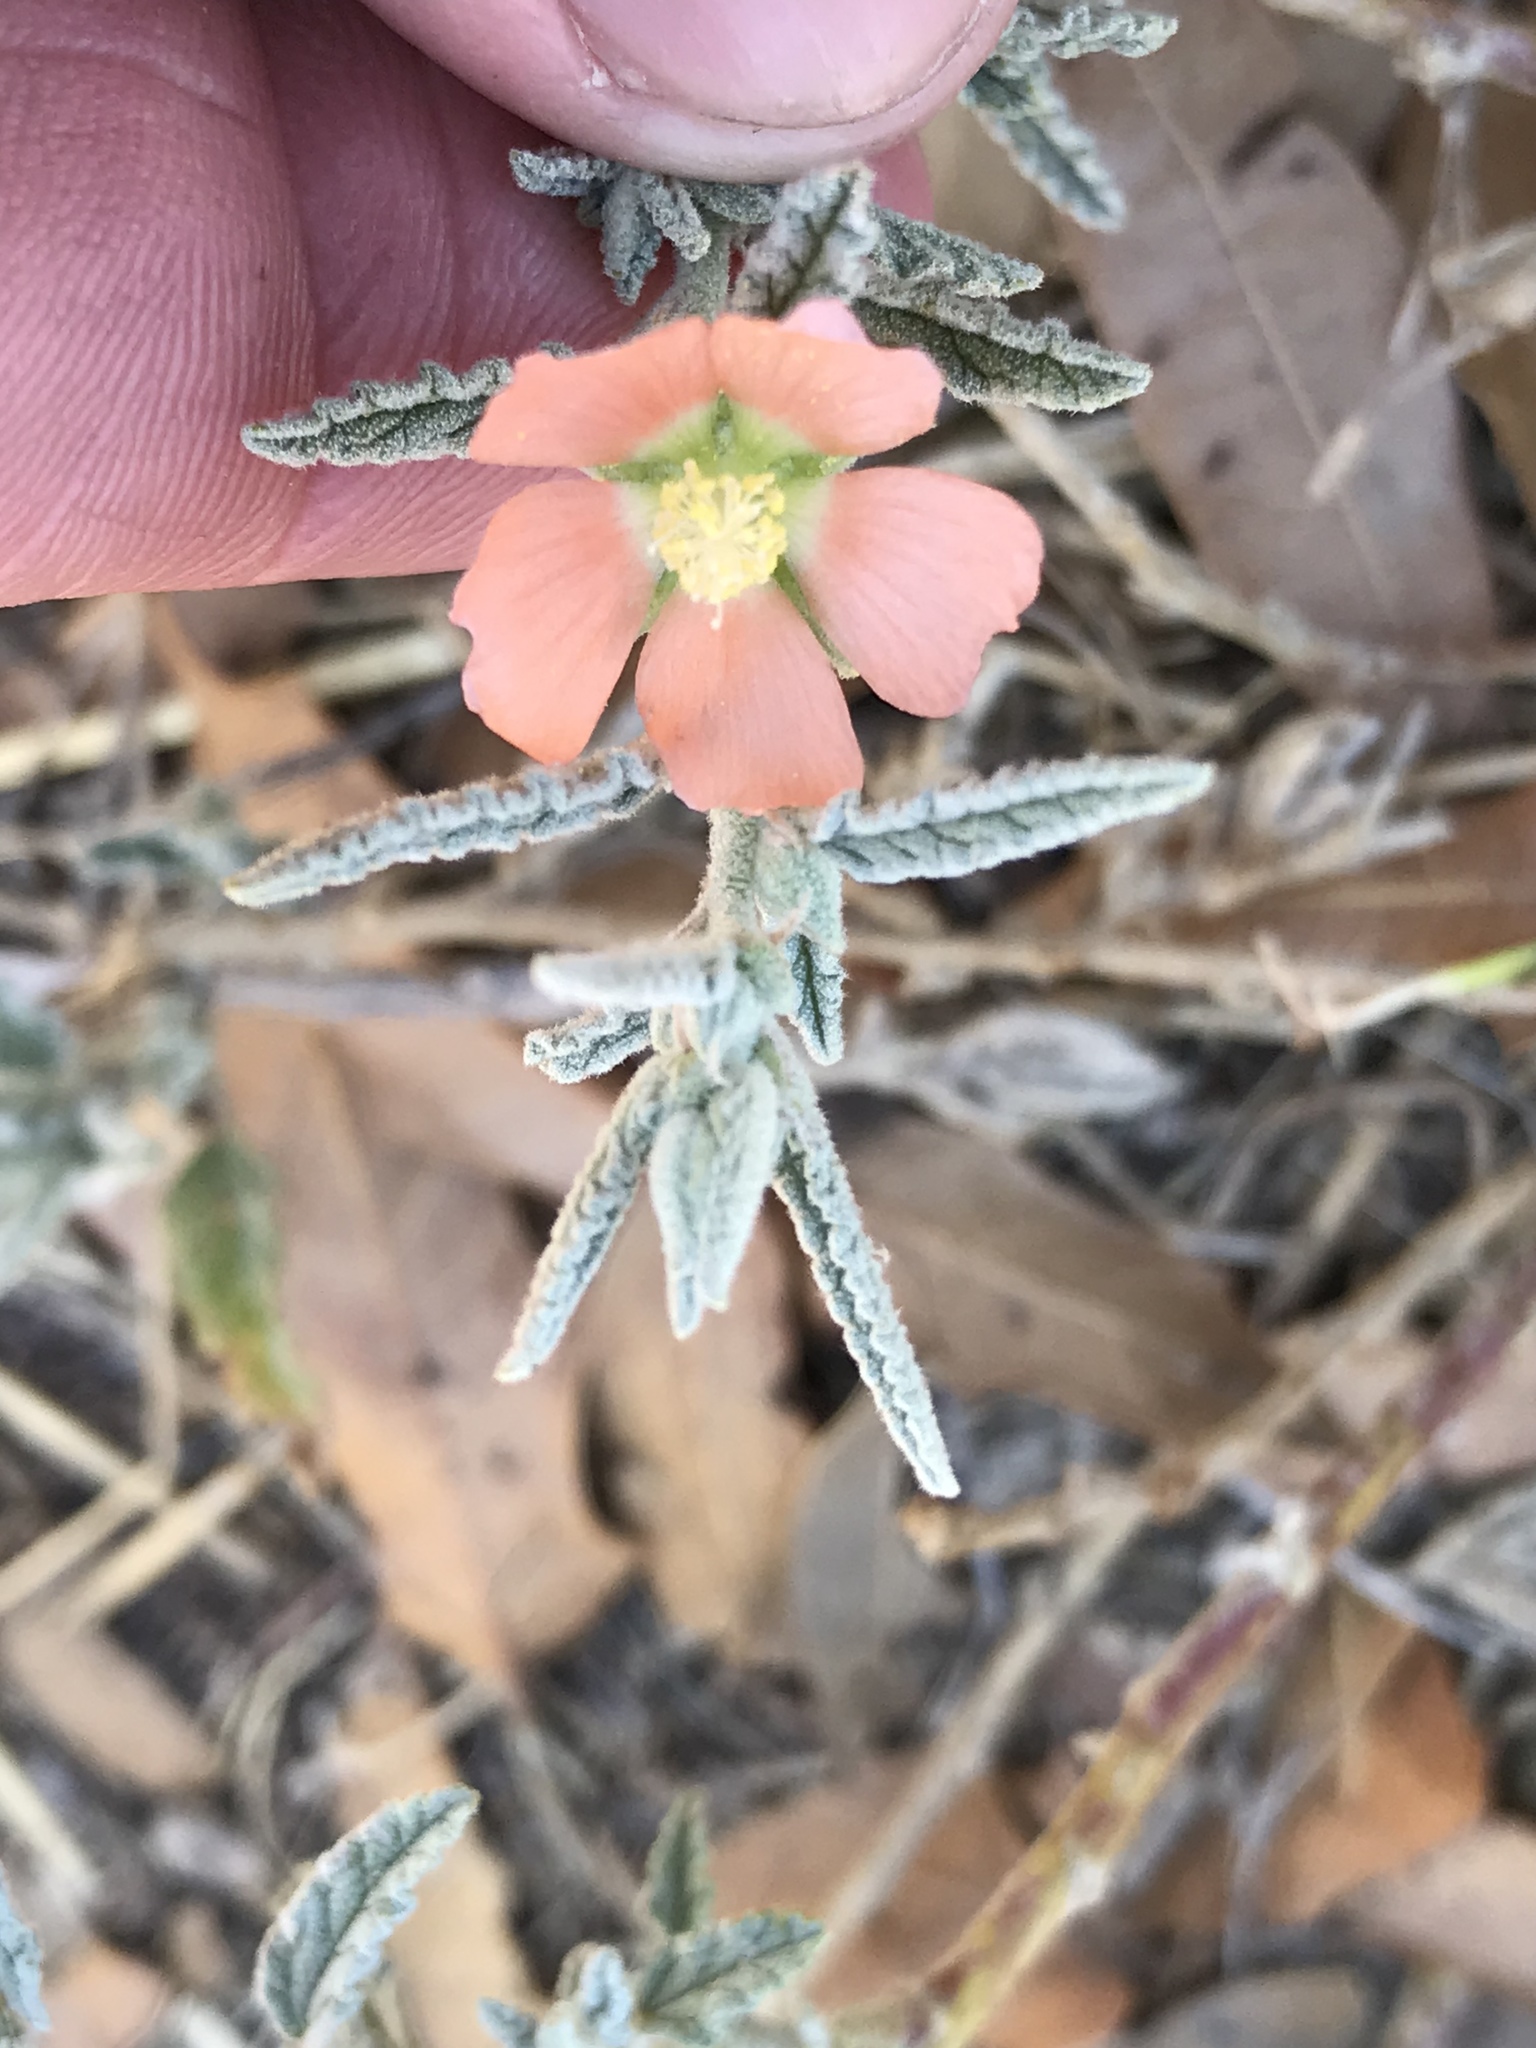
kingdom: Plantae
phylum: Tracheophyta
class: Magnoliopsida
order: Malvales
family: Malvaceae
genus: Sphaeralcea
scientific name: Sphaeralcea angustifolia
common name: Copper globe-mallow
